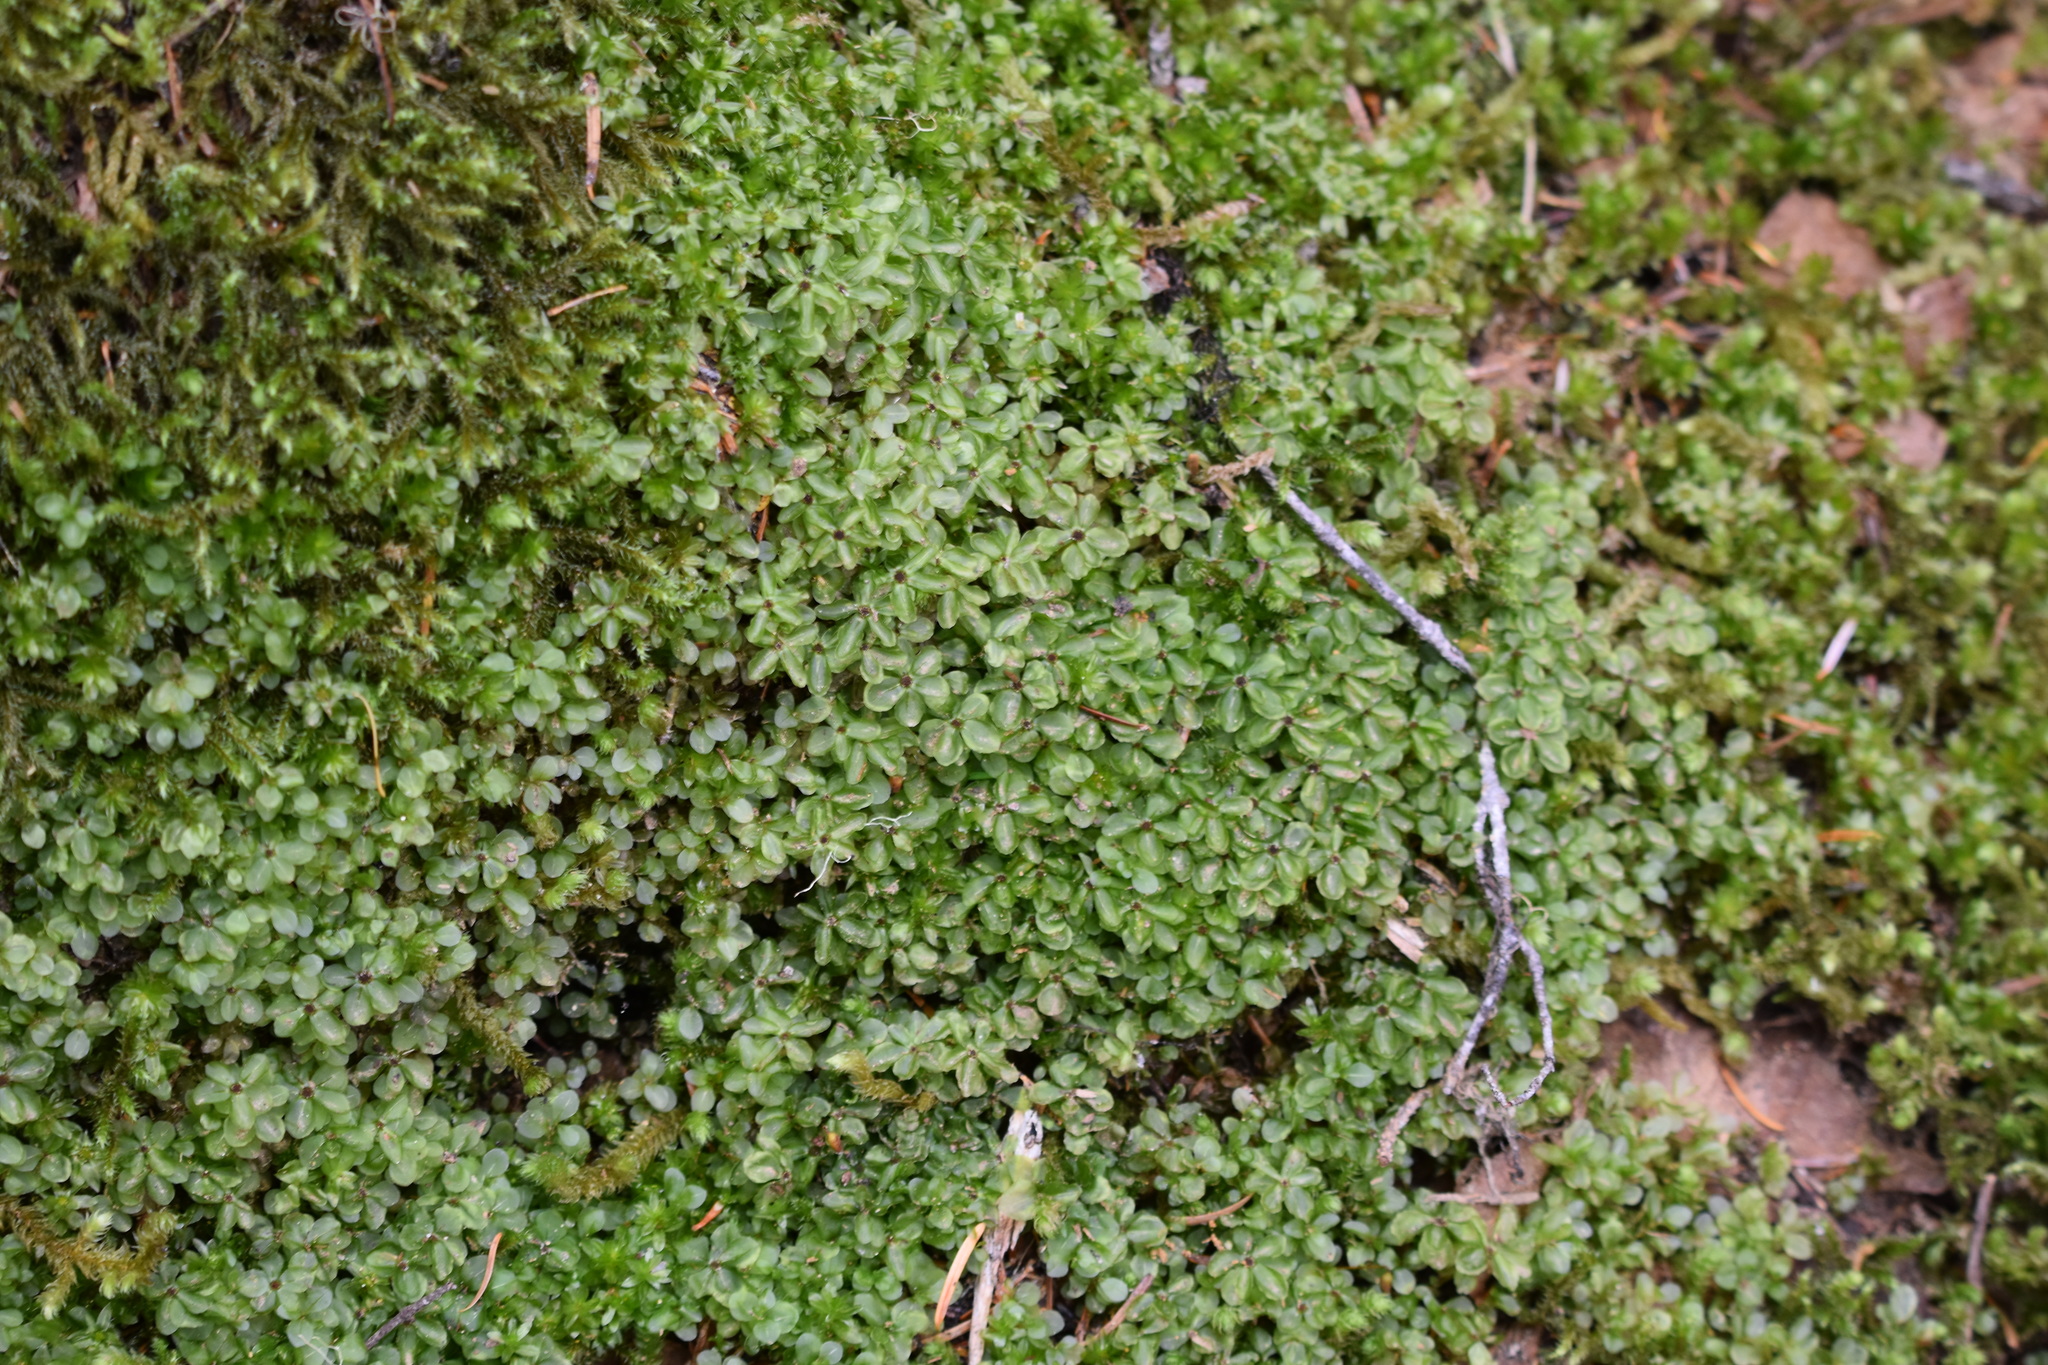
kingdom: Plantae
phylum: Bryophyta
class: Bryopsida
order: Bryales
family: Mniaceae
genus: Rhizomnium
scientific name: Rhizomnium nudum
